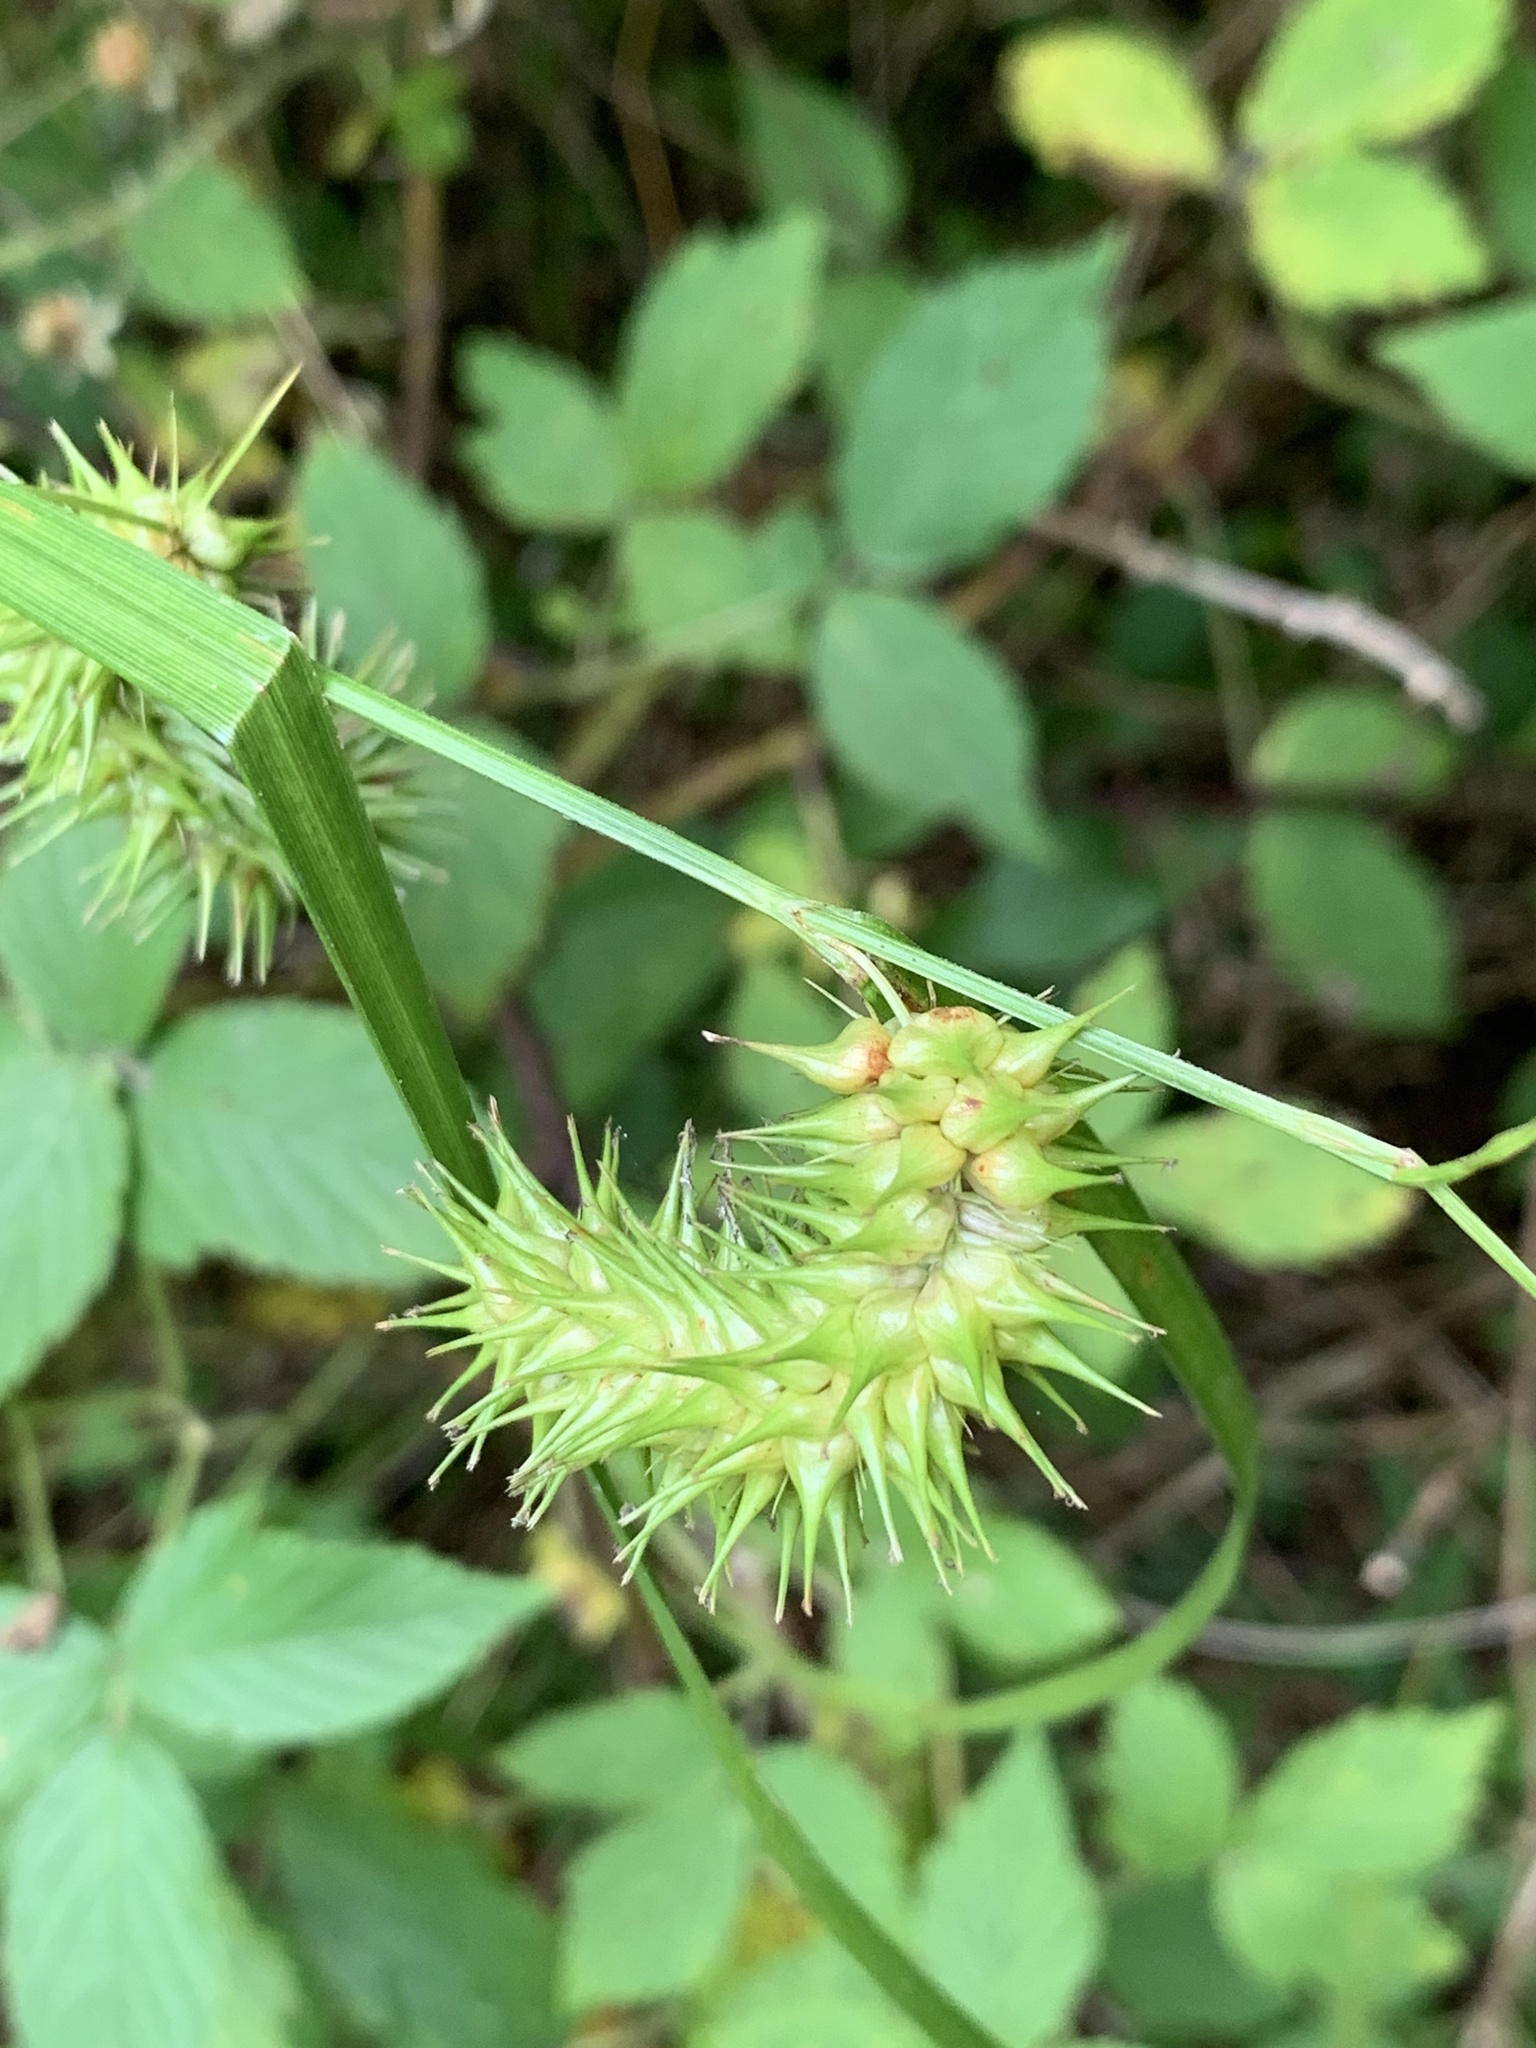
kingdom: Plantae
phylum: Tracheophyta
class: Liliopsida
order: Poales
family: Cyperaceae
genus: Carex
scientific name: Carex lurida
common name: Sallow sedge
